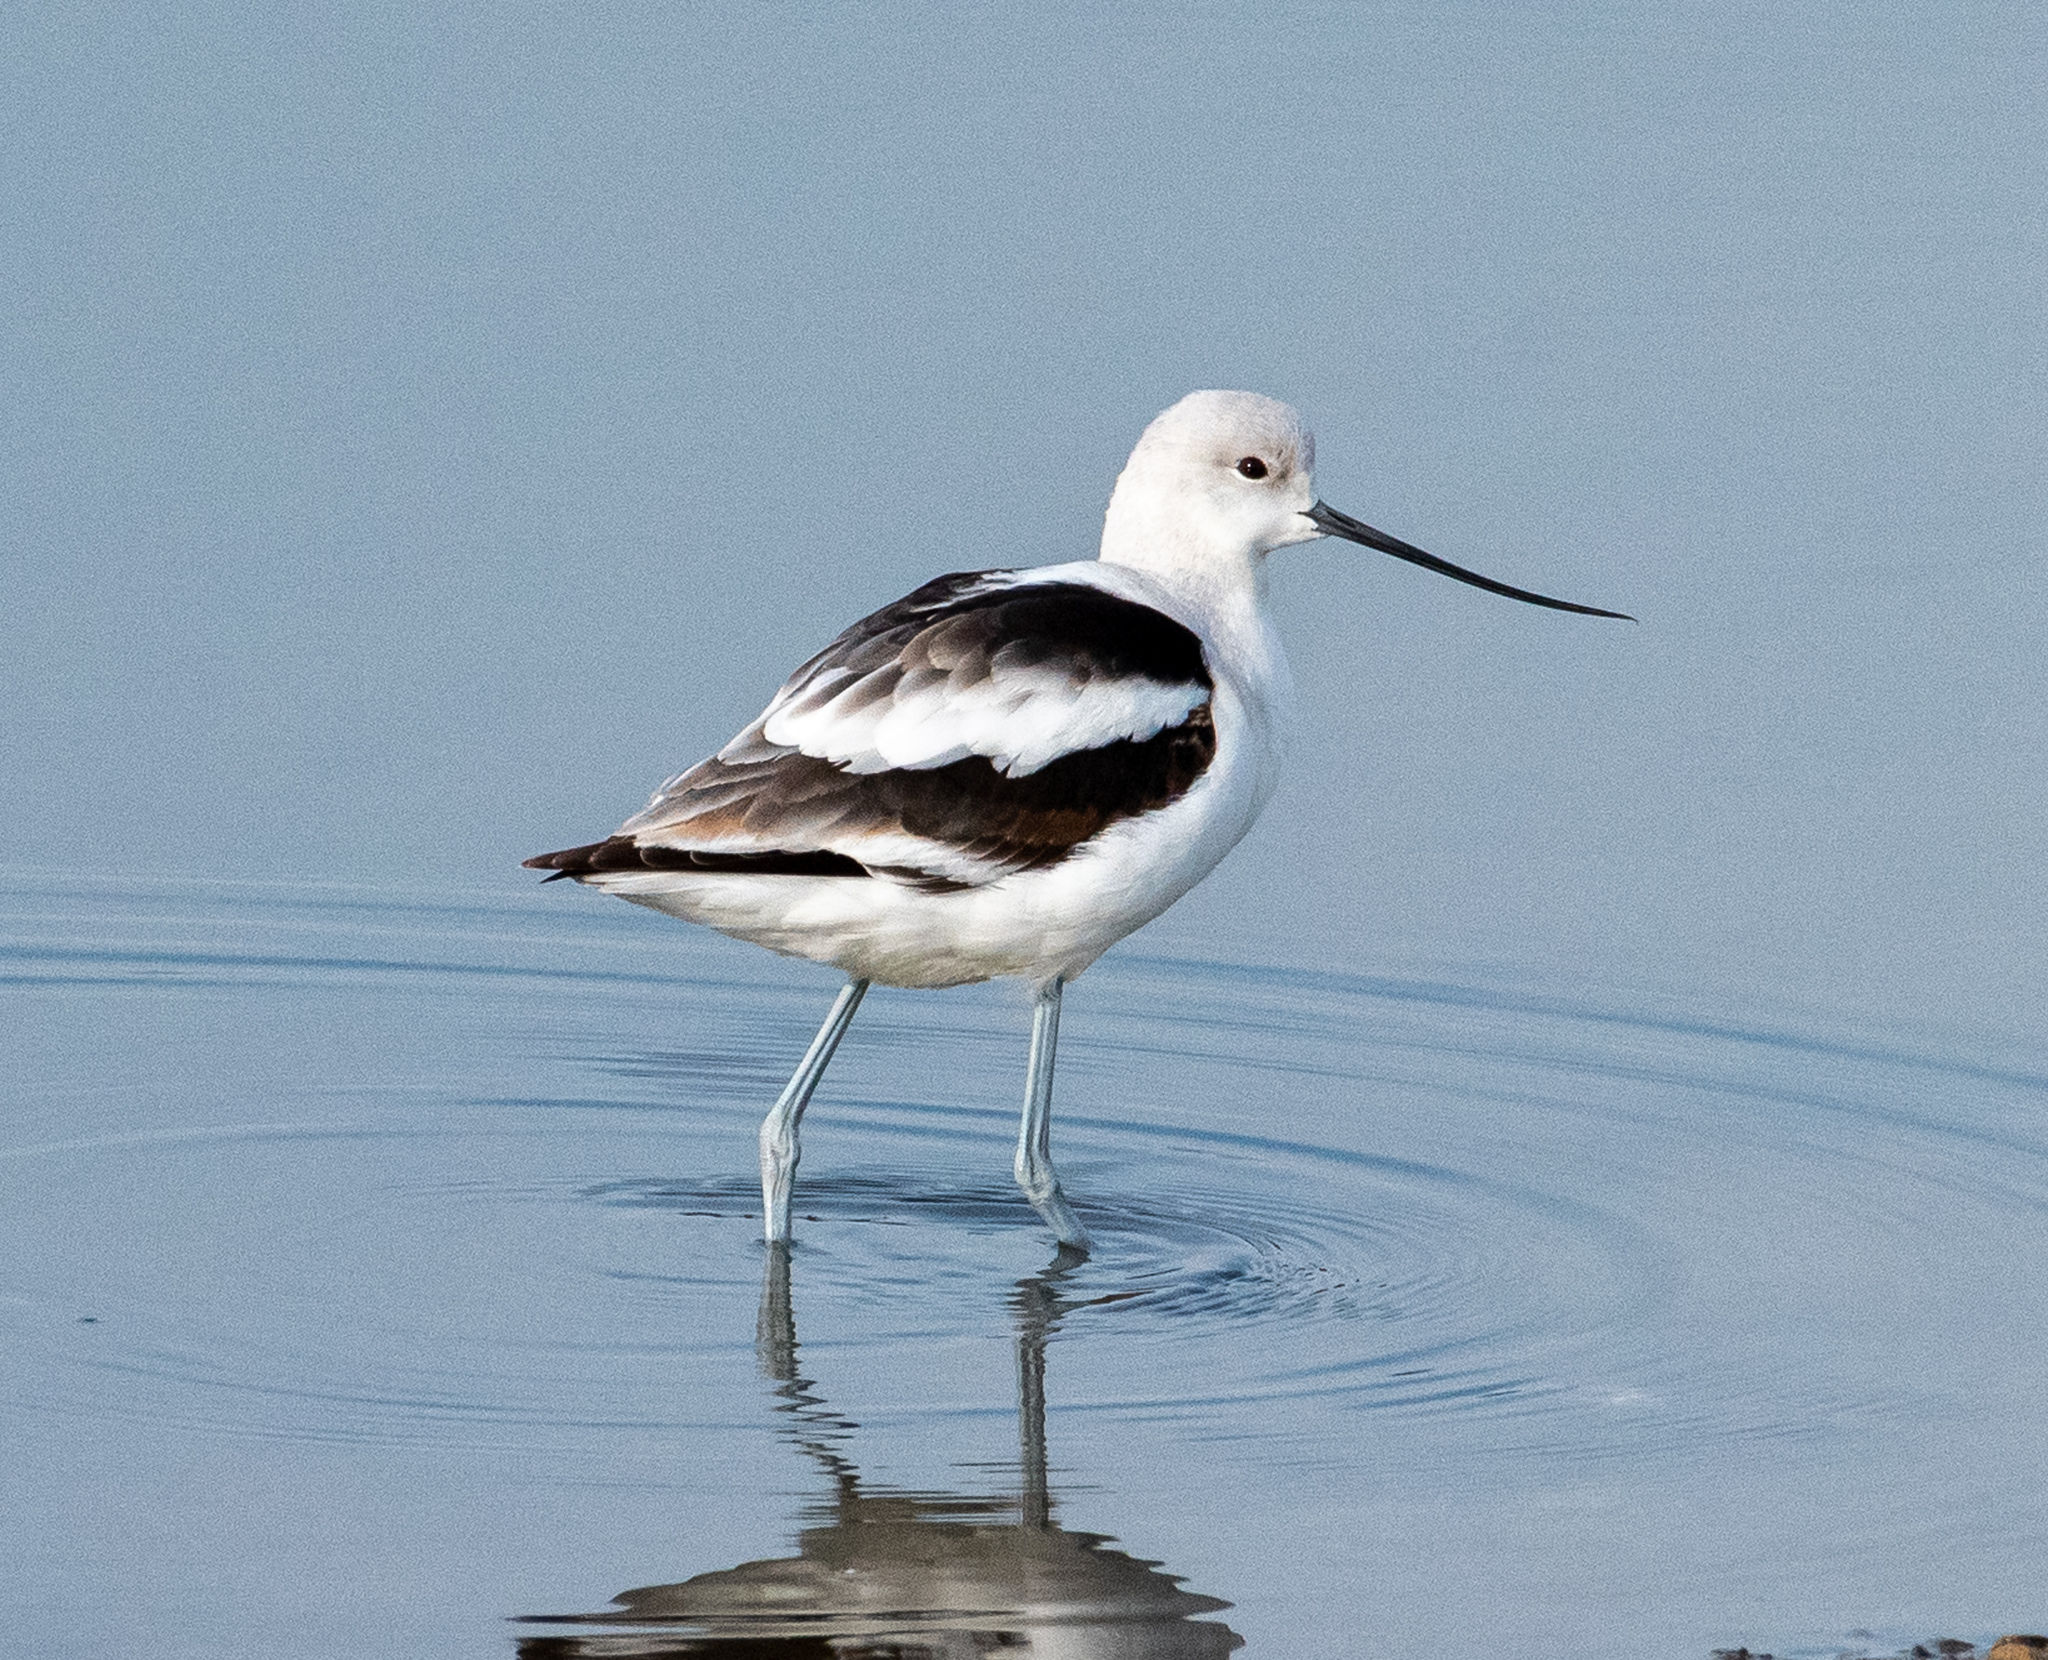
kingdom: Animalia
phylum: Chordata
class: Aves
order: Charadriiformes
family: Recurvirostridae
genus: Recurvirostra
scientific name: Recurvirostra americana
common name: American avocet
